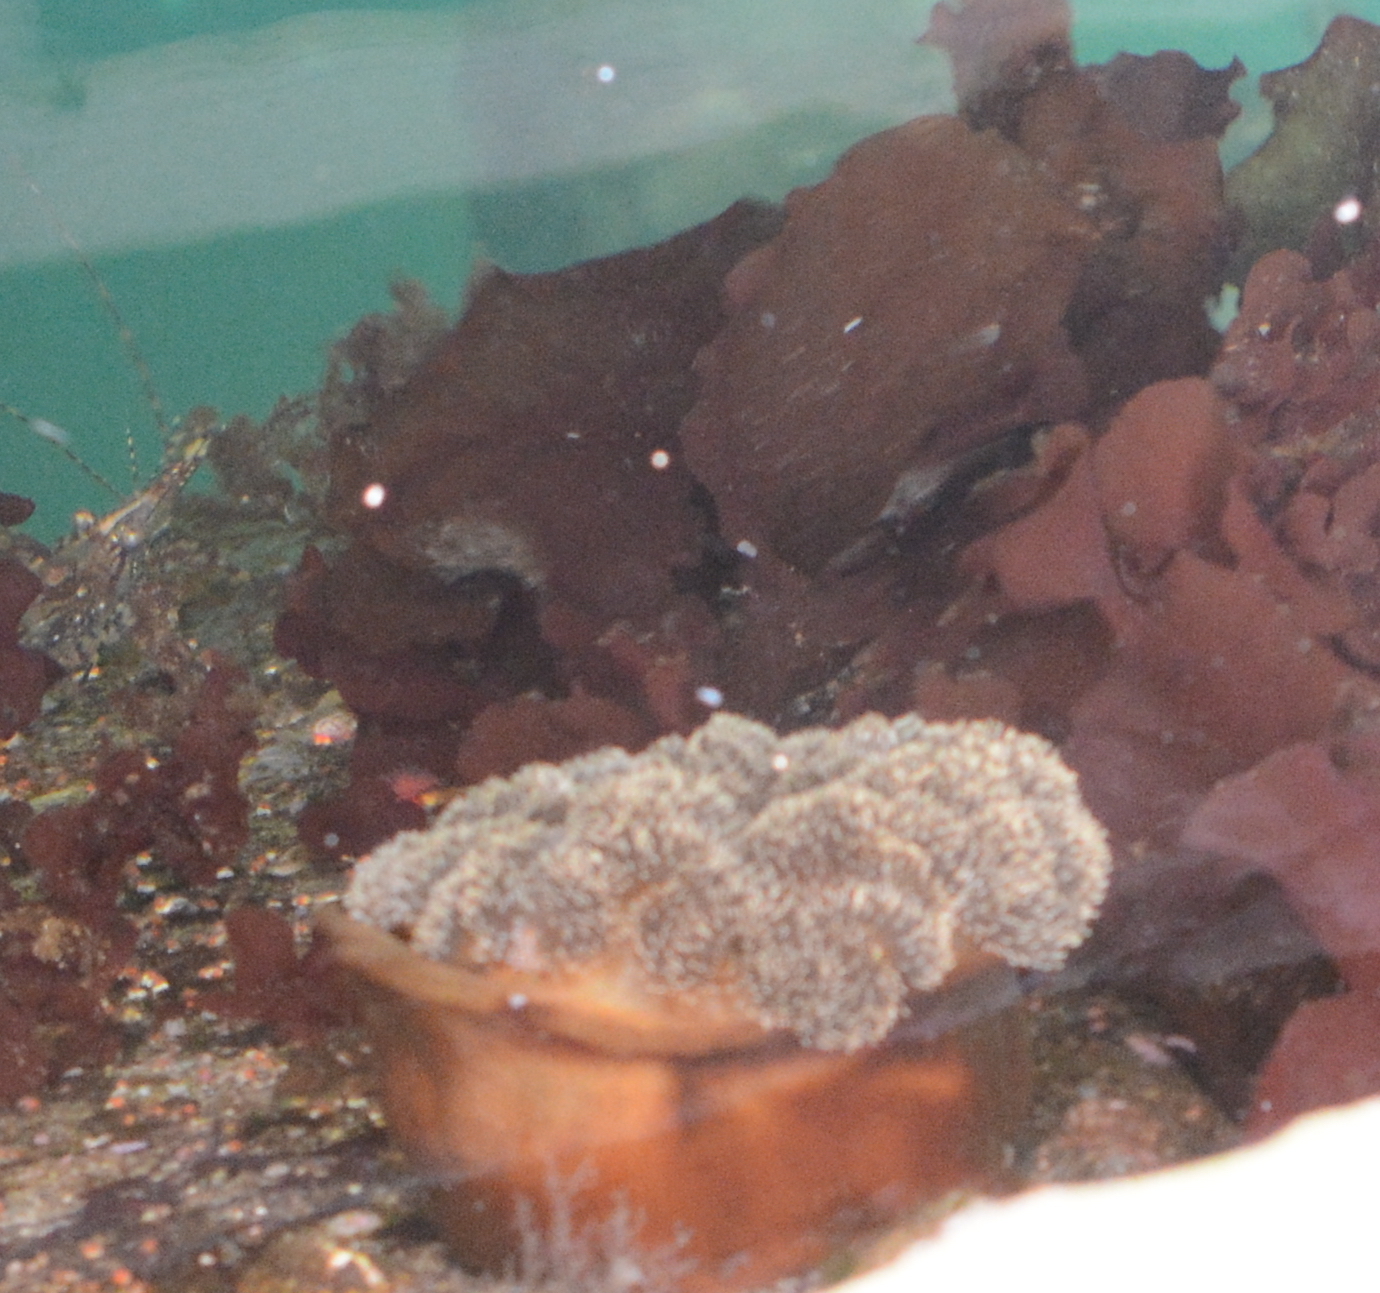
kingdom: Animalia
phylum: Cnidaria
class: Anthozoa
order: Actiniaria
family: Metridiidae
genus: Metridium
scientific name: Metridium senile
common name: Clonal plumose anemone
